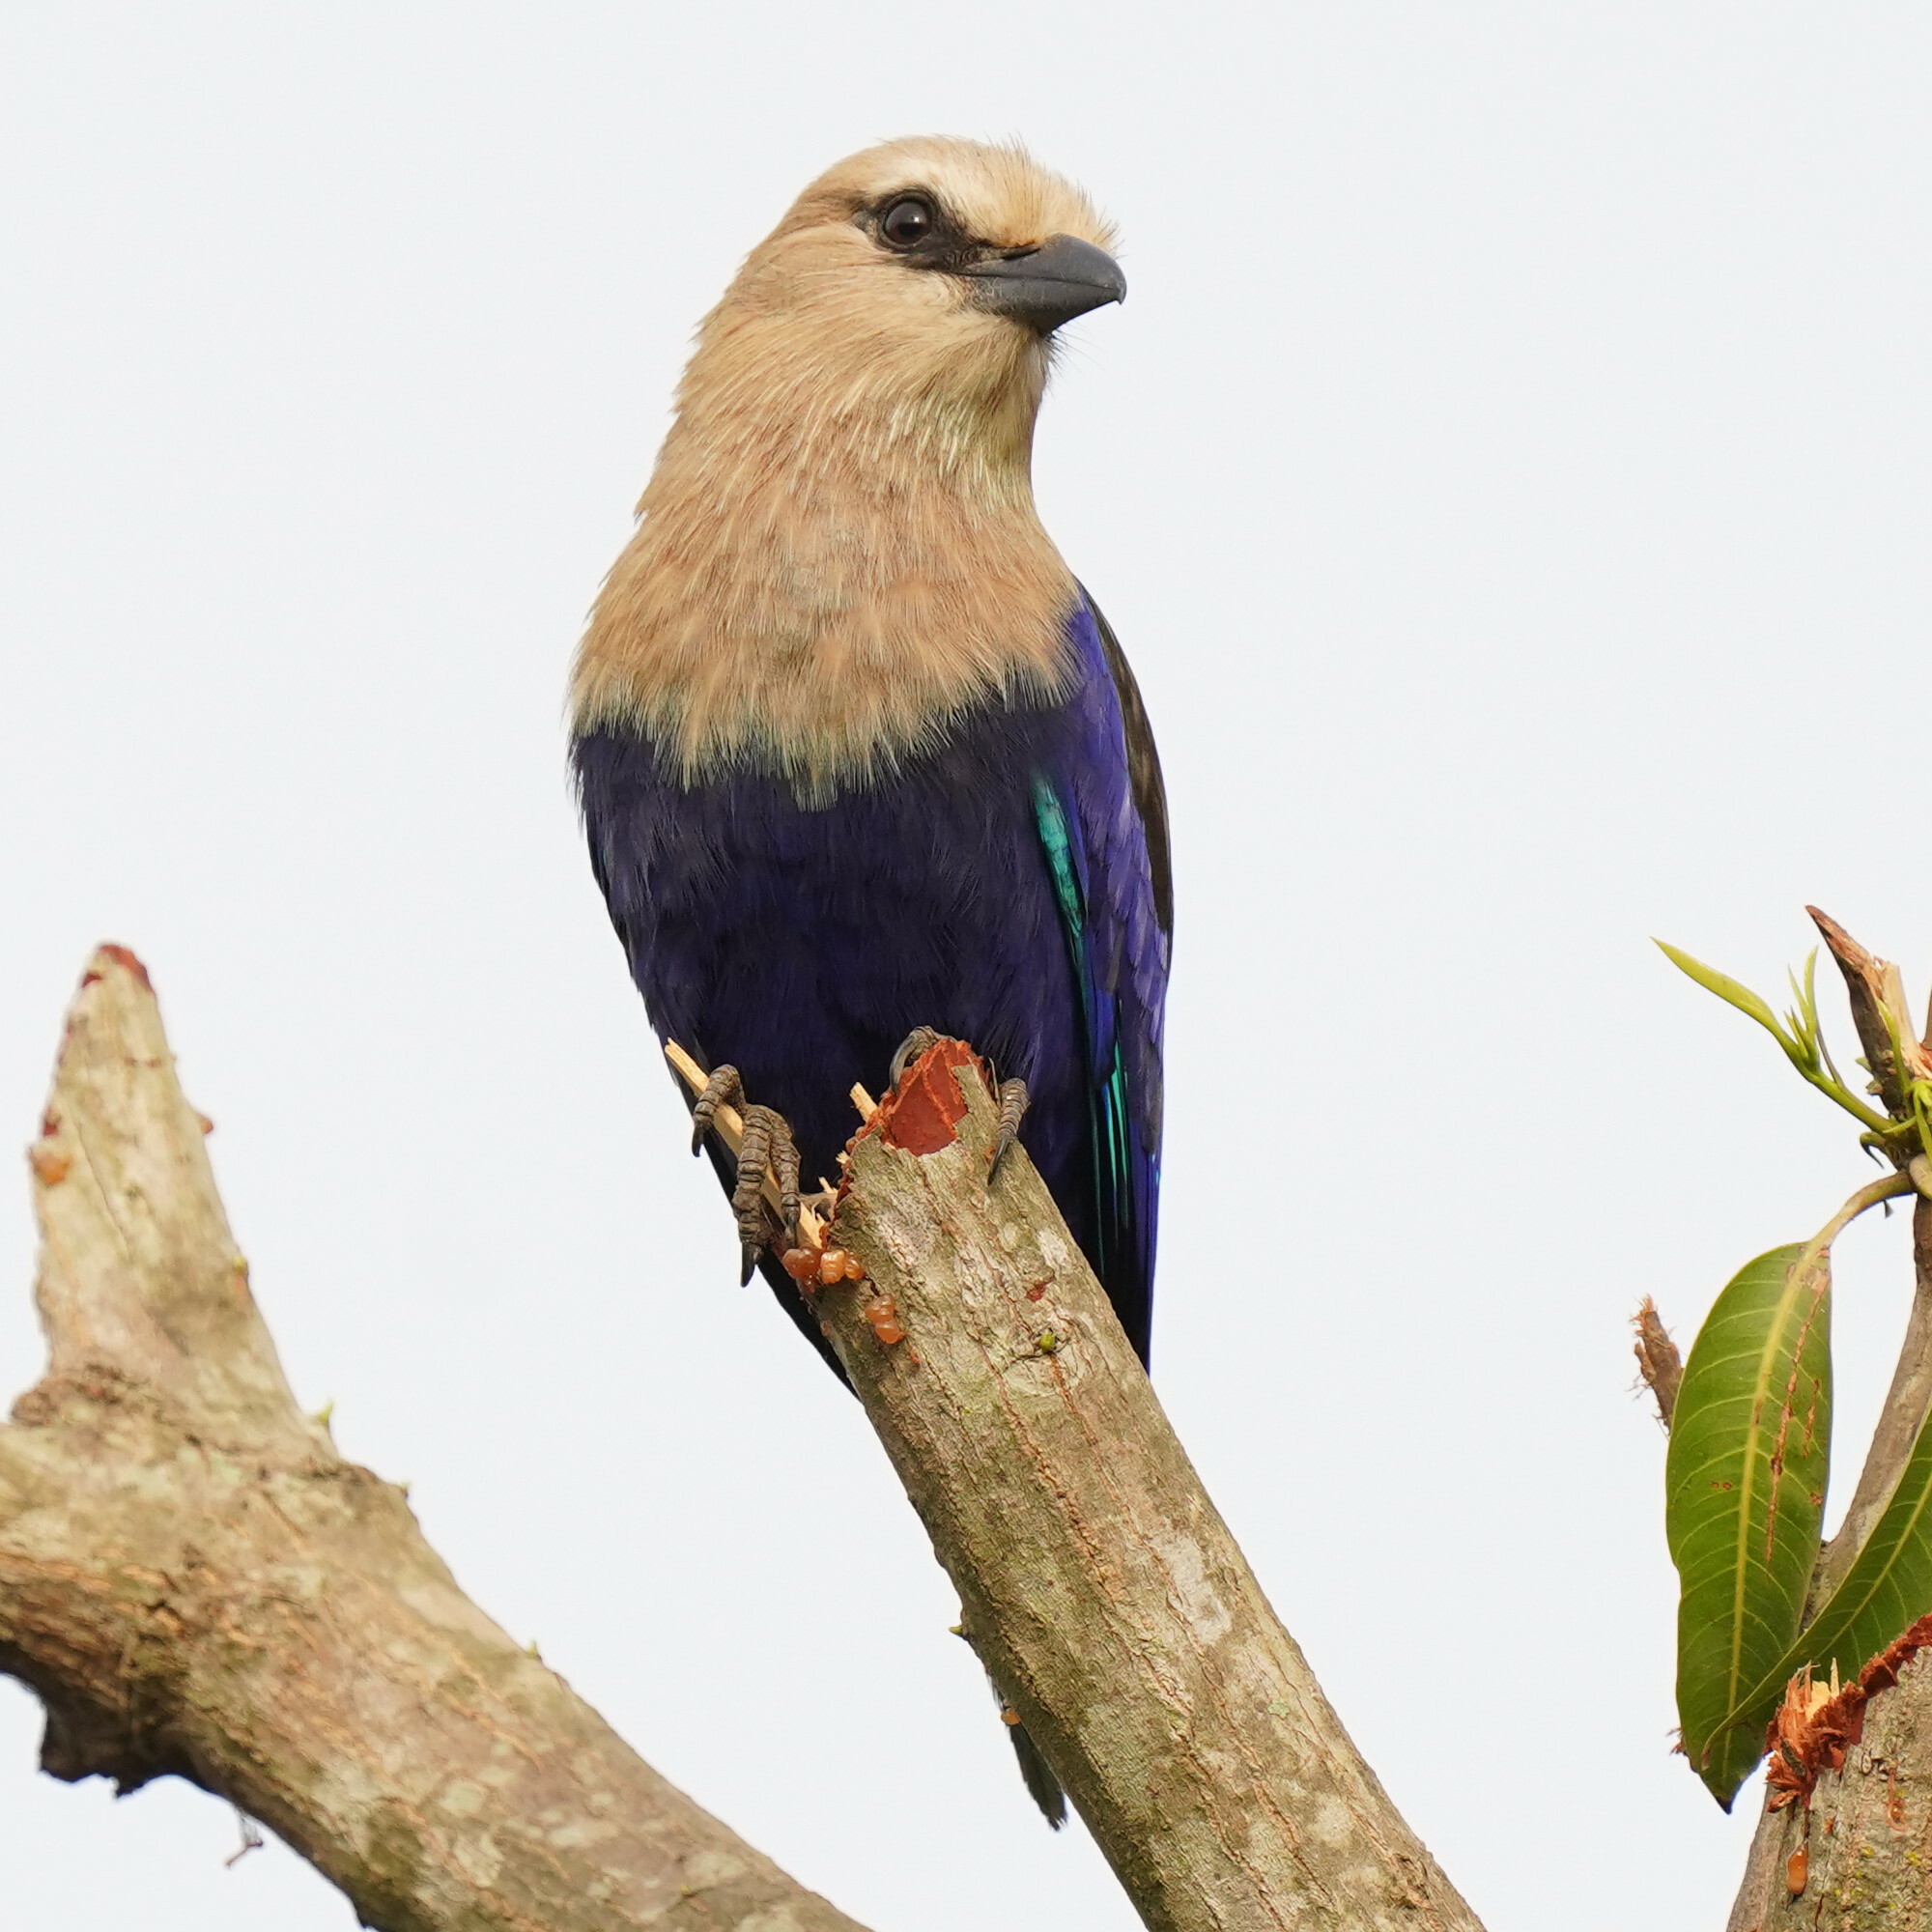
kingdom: Animalia
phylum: Chordata
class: Aves
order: Coraciiformes
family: Coraciidae
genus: Coracias
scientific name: Coracias cyanogaster
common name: Blue-bellied roller
